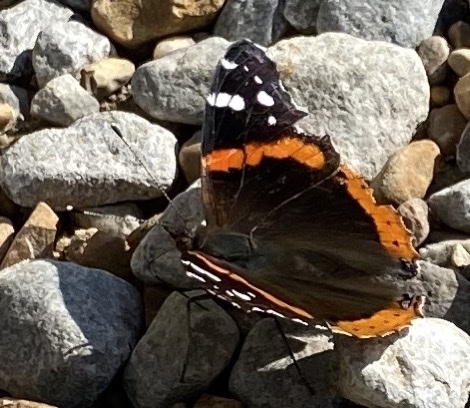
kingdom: Animalia
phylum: Arthropoda
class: Insecta
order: Lepidoptera
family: Nymphalidae
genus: Vanessa
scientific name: Vanessa atalanta
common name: Red admiral
